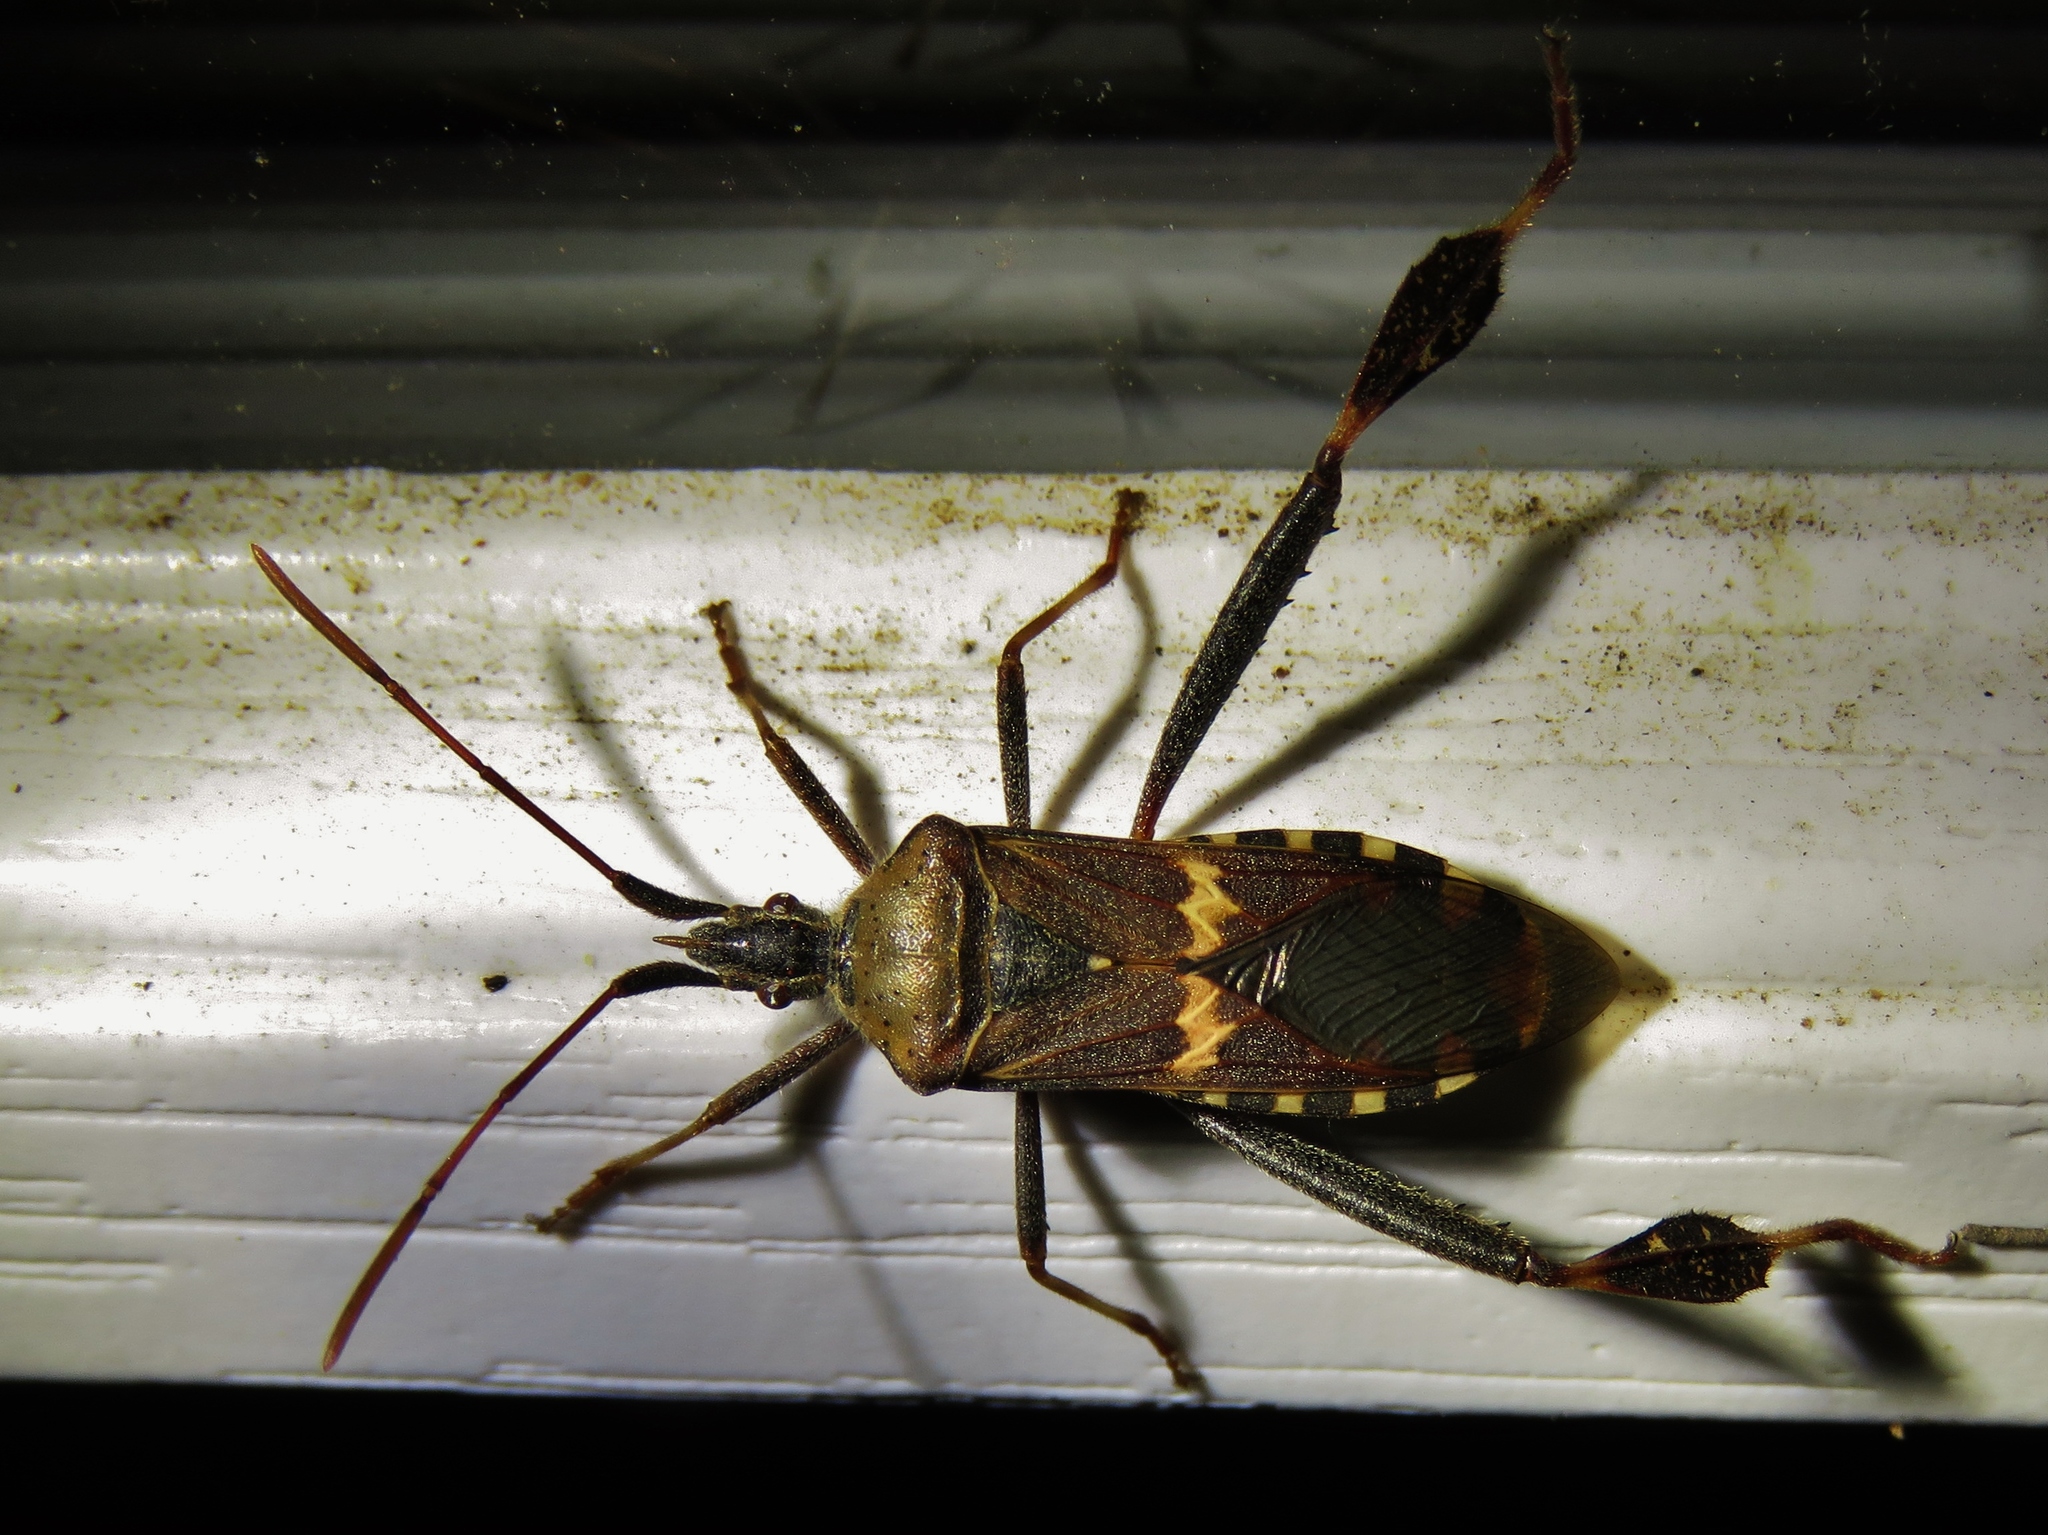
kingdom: Animalia
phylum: Arthropoda
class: Insecta
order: Hemiptera
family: Coreidae
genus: Leptoglossus
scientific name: Leptoglossus clypealis
